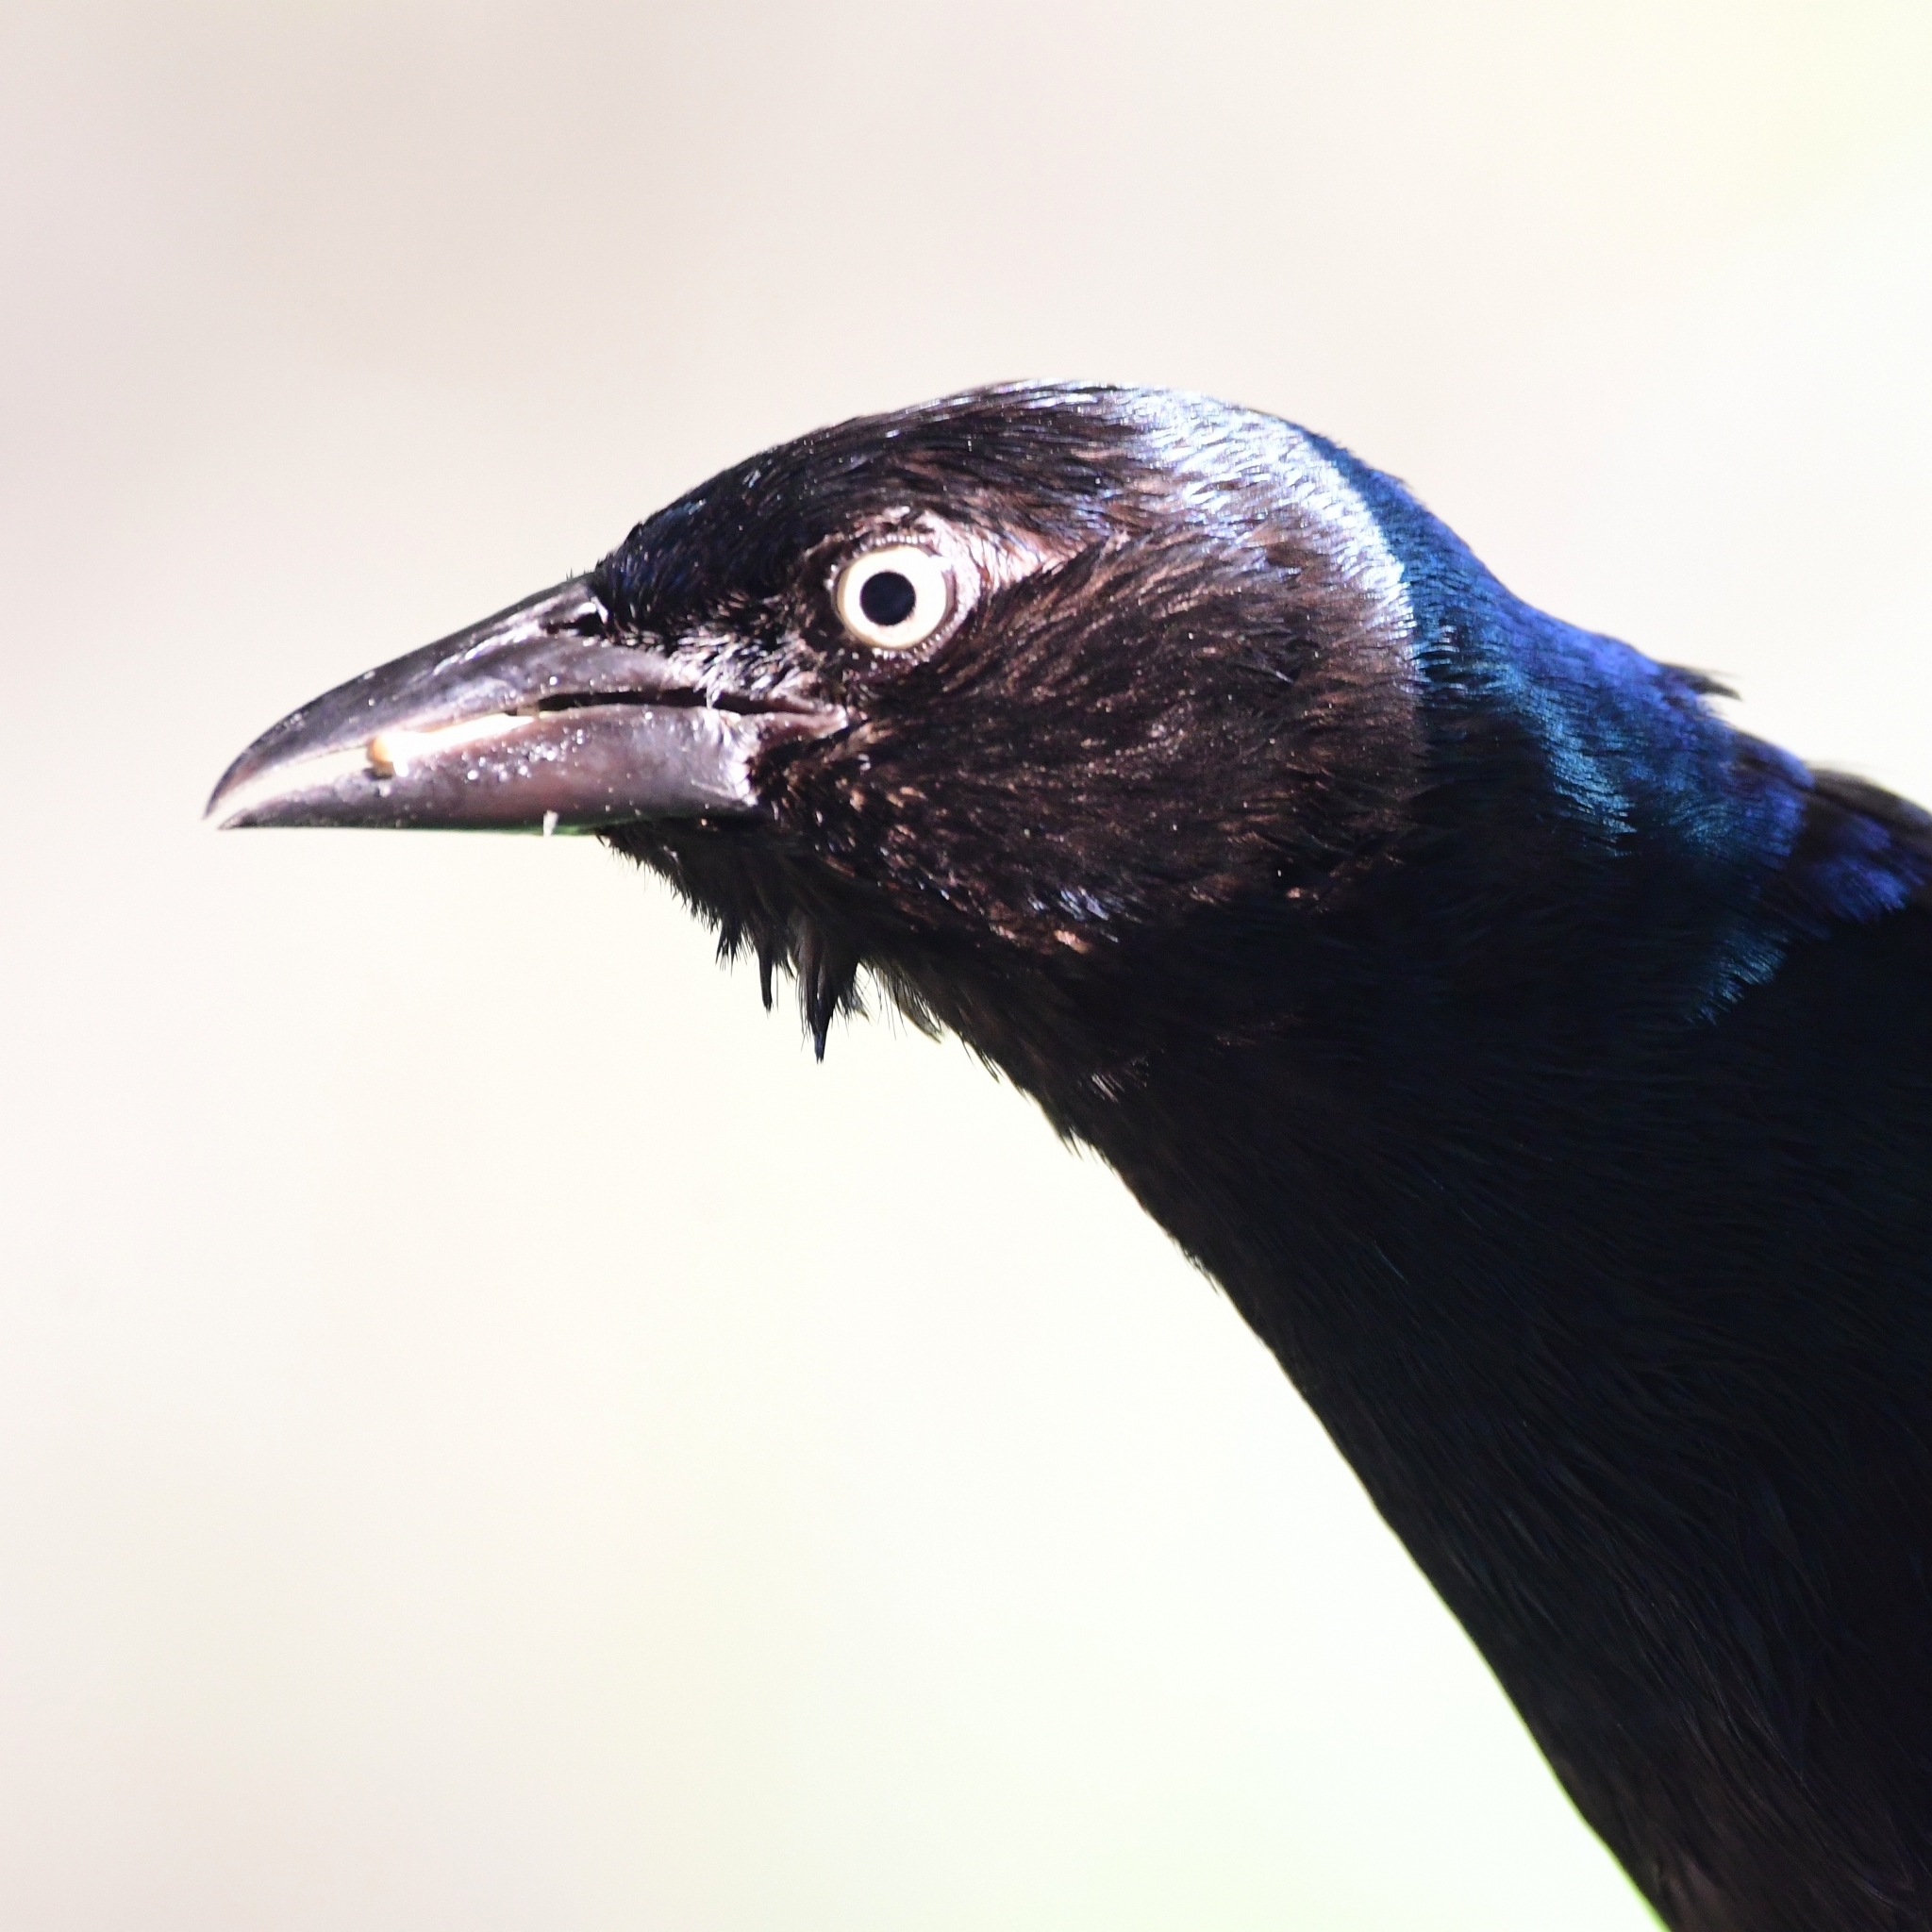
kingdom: Animalia
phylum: Chordata
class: Aves
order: Passeriformes
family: Icteridae
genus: Quiscalus
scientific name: Quiscalus quiscula
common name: Common grackle
